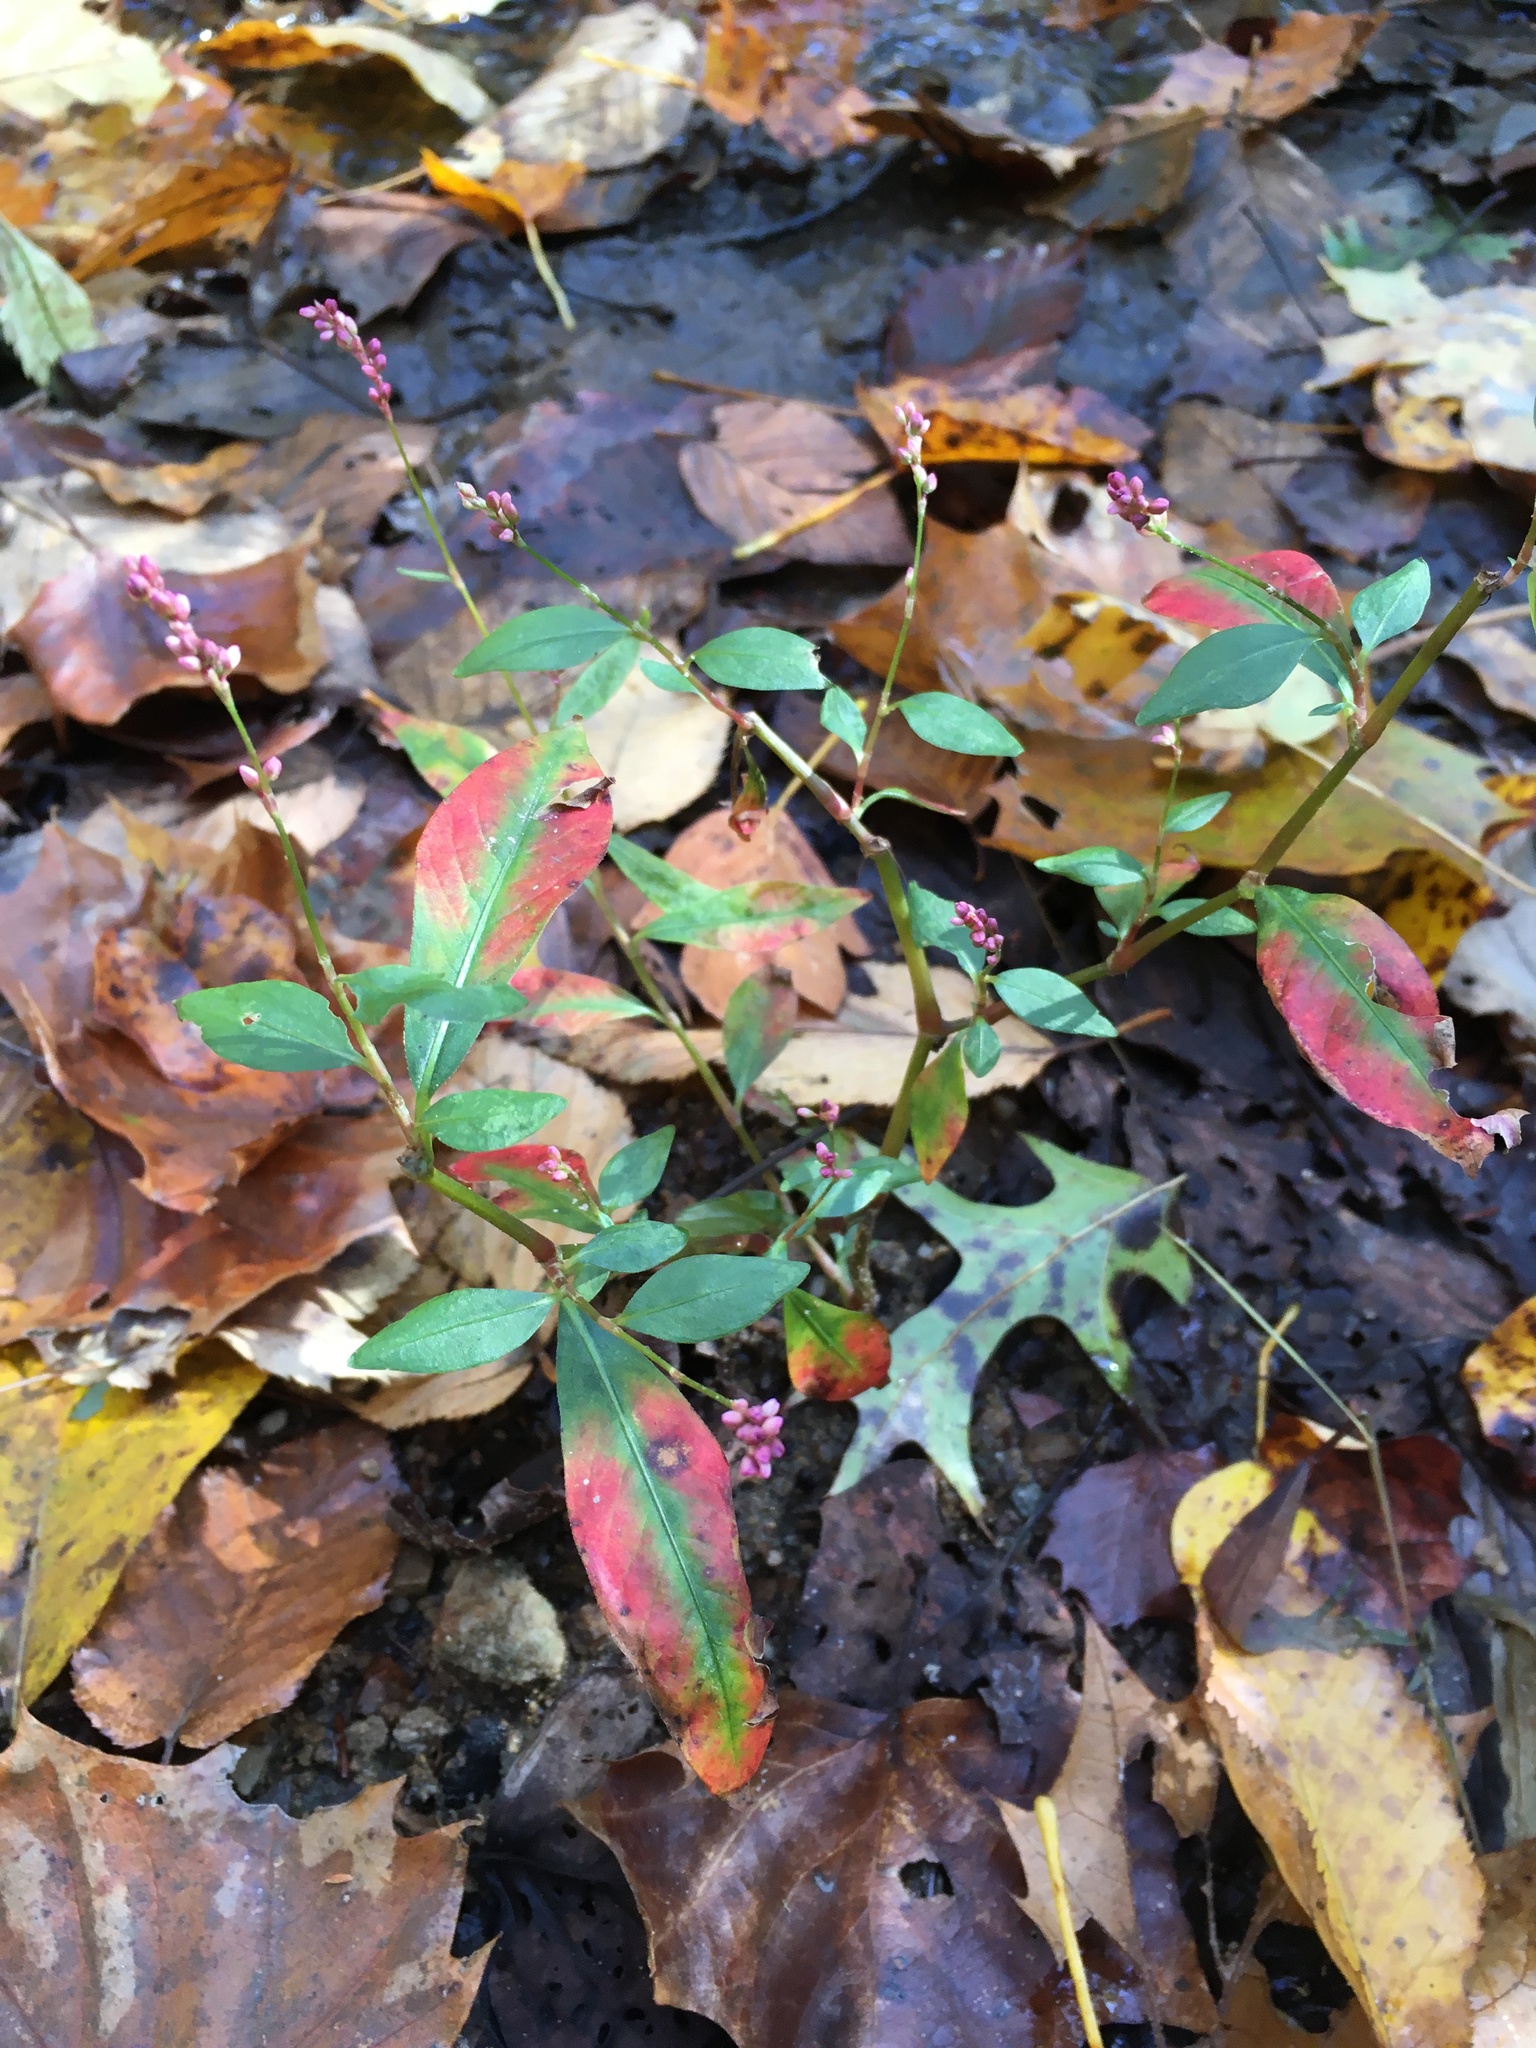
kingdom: Plantae
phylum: Tracheophyta
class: Magnoliopsida
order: Caryophyllales
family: Polygonaceae
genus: Persicaria
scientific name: Persicaria longiseta
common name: Bristly lady's-thumb
